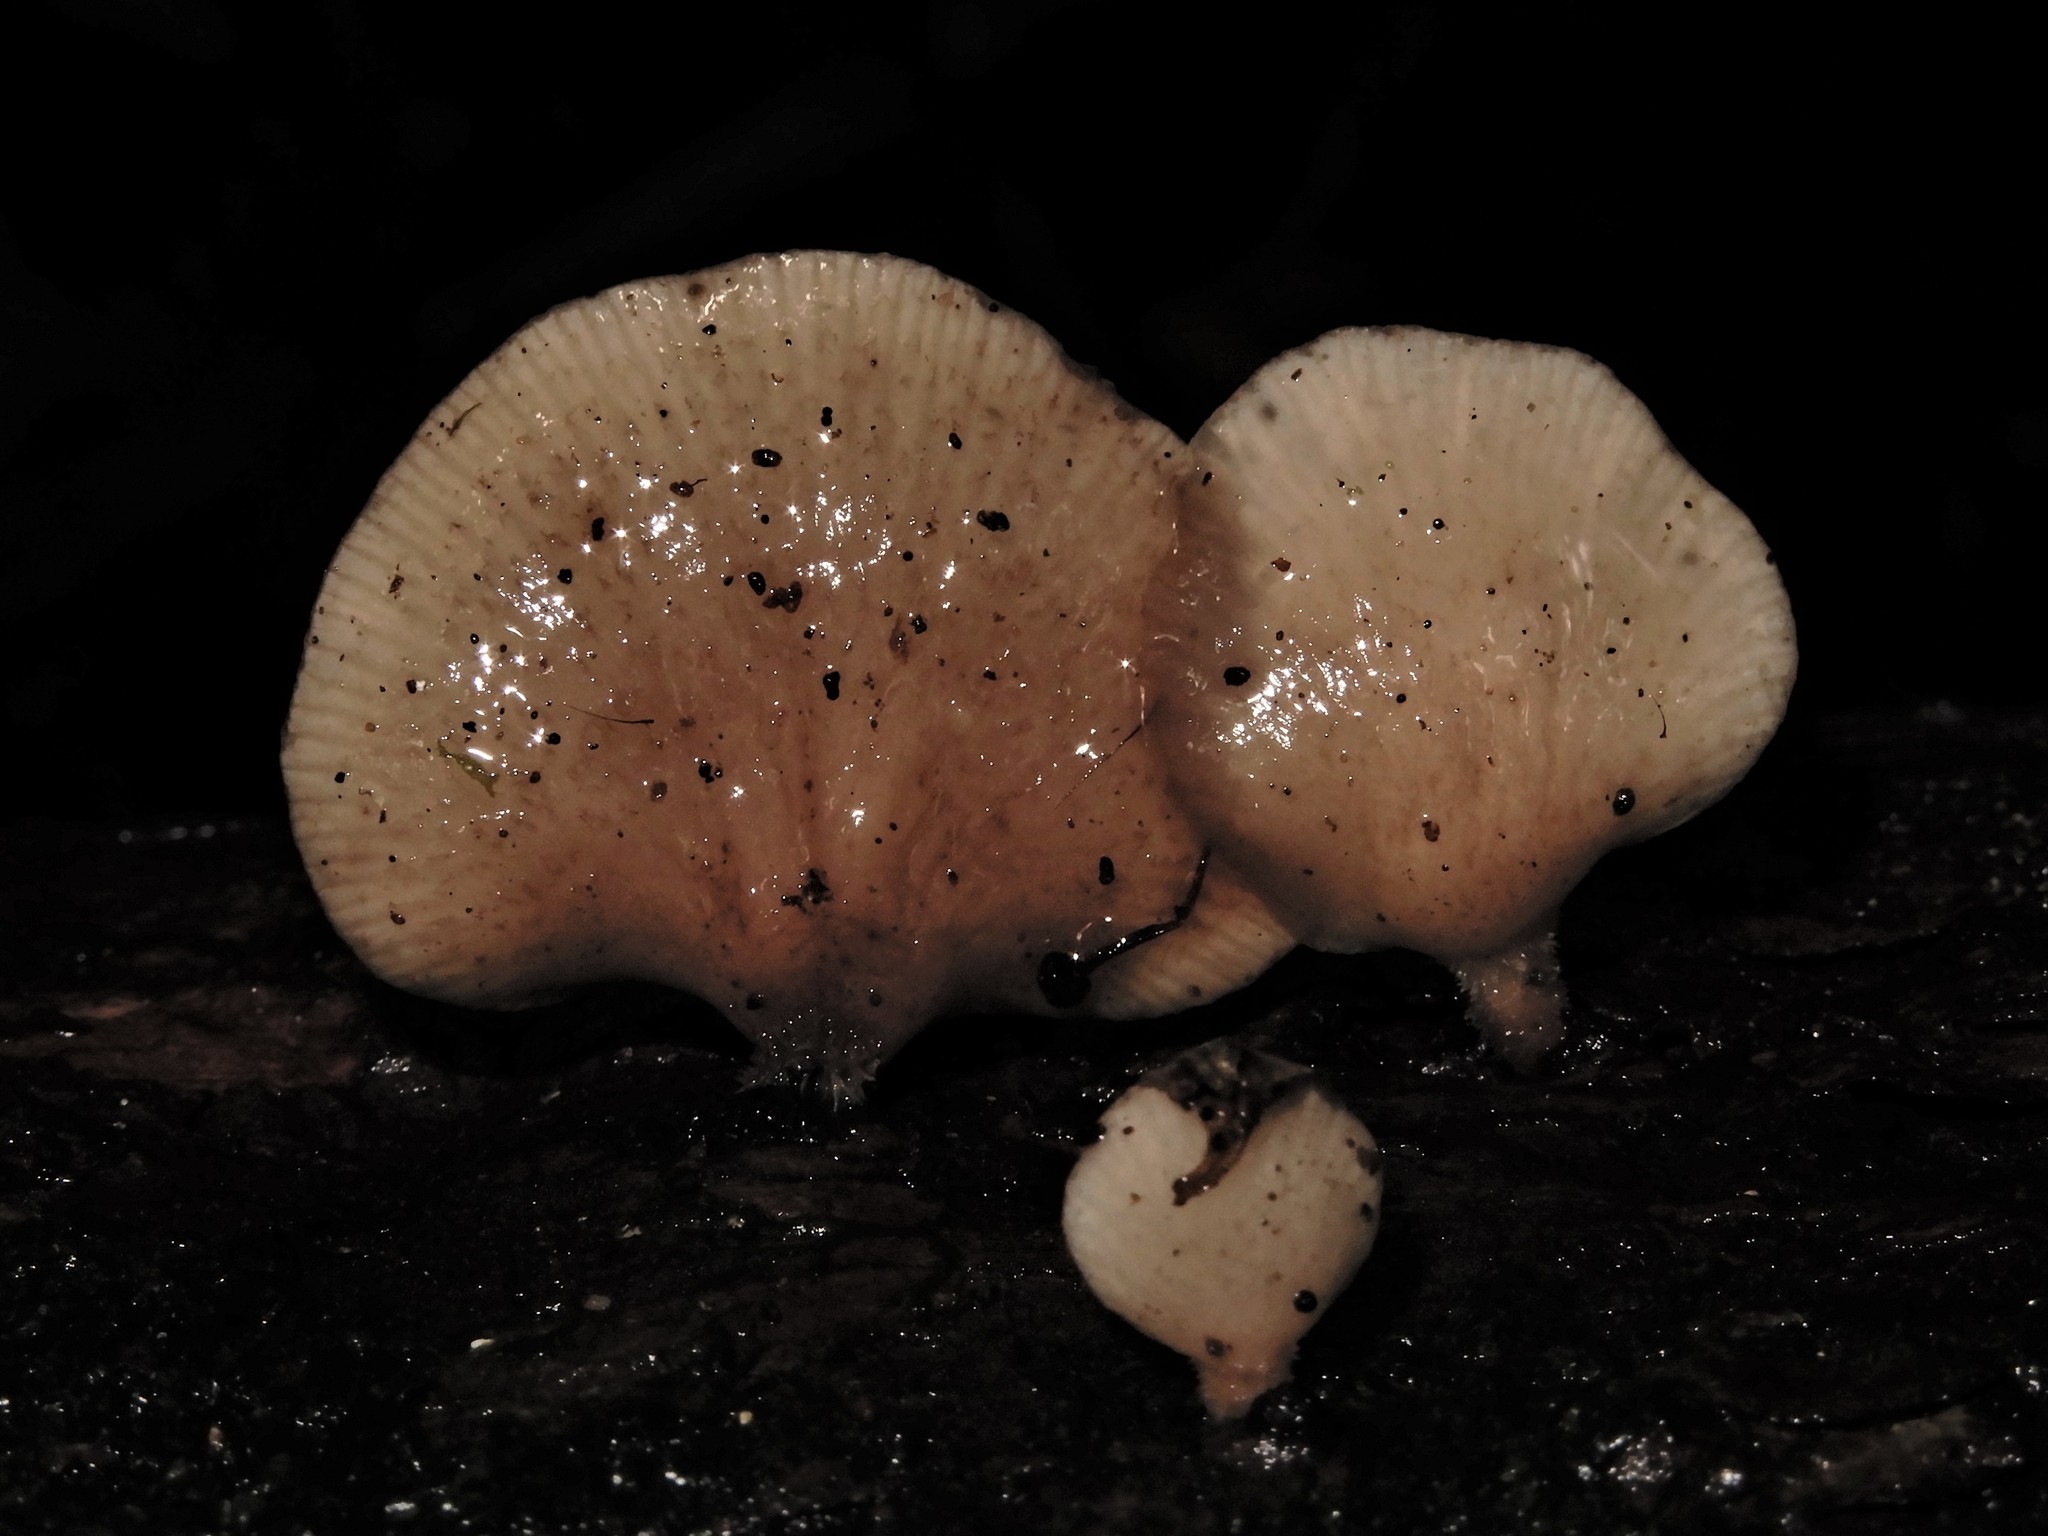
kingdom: Fungi
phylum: Basidiomycota
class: Agaricomycetes
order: Agaricales
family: Mycenaceae
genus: Panellus
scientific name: Panellus longinquus
